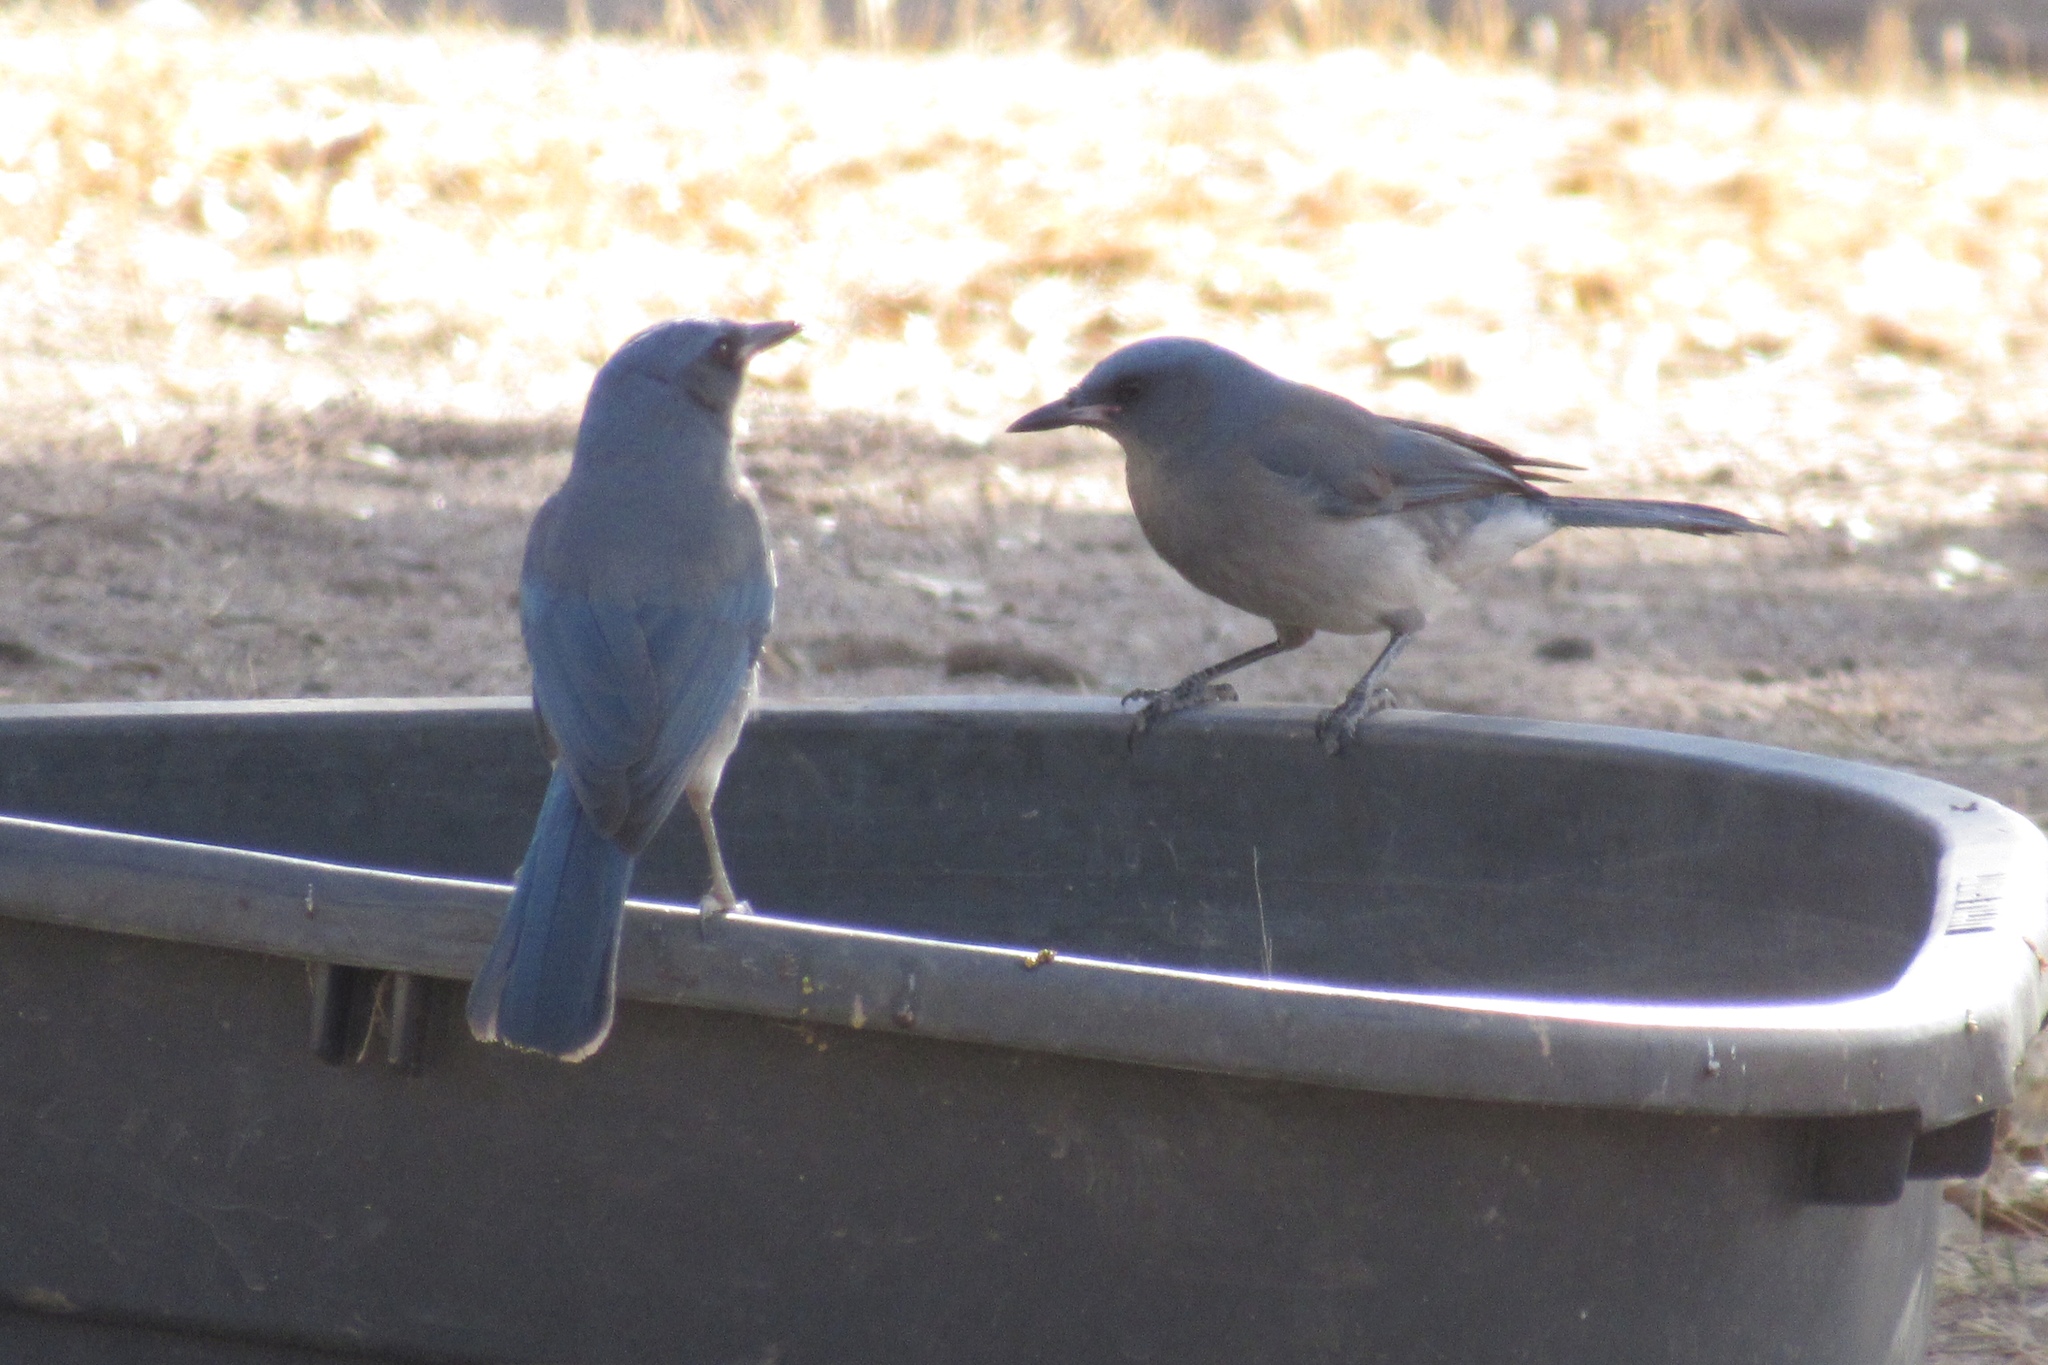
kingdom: Animalia
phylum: Chordata
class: Aves
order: Passeriformes
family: Corvidae
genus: Aphelocoma
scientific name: Aphelocoma wollweberi
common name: Mexican jay
